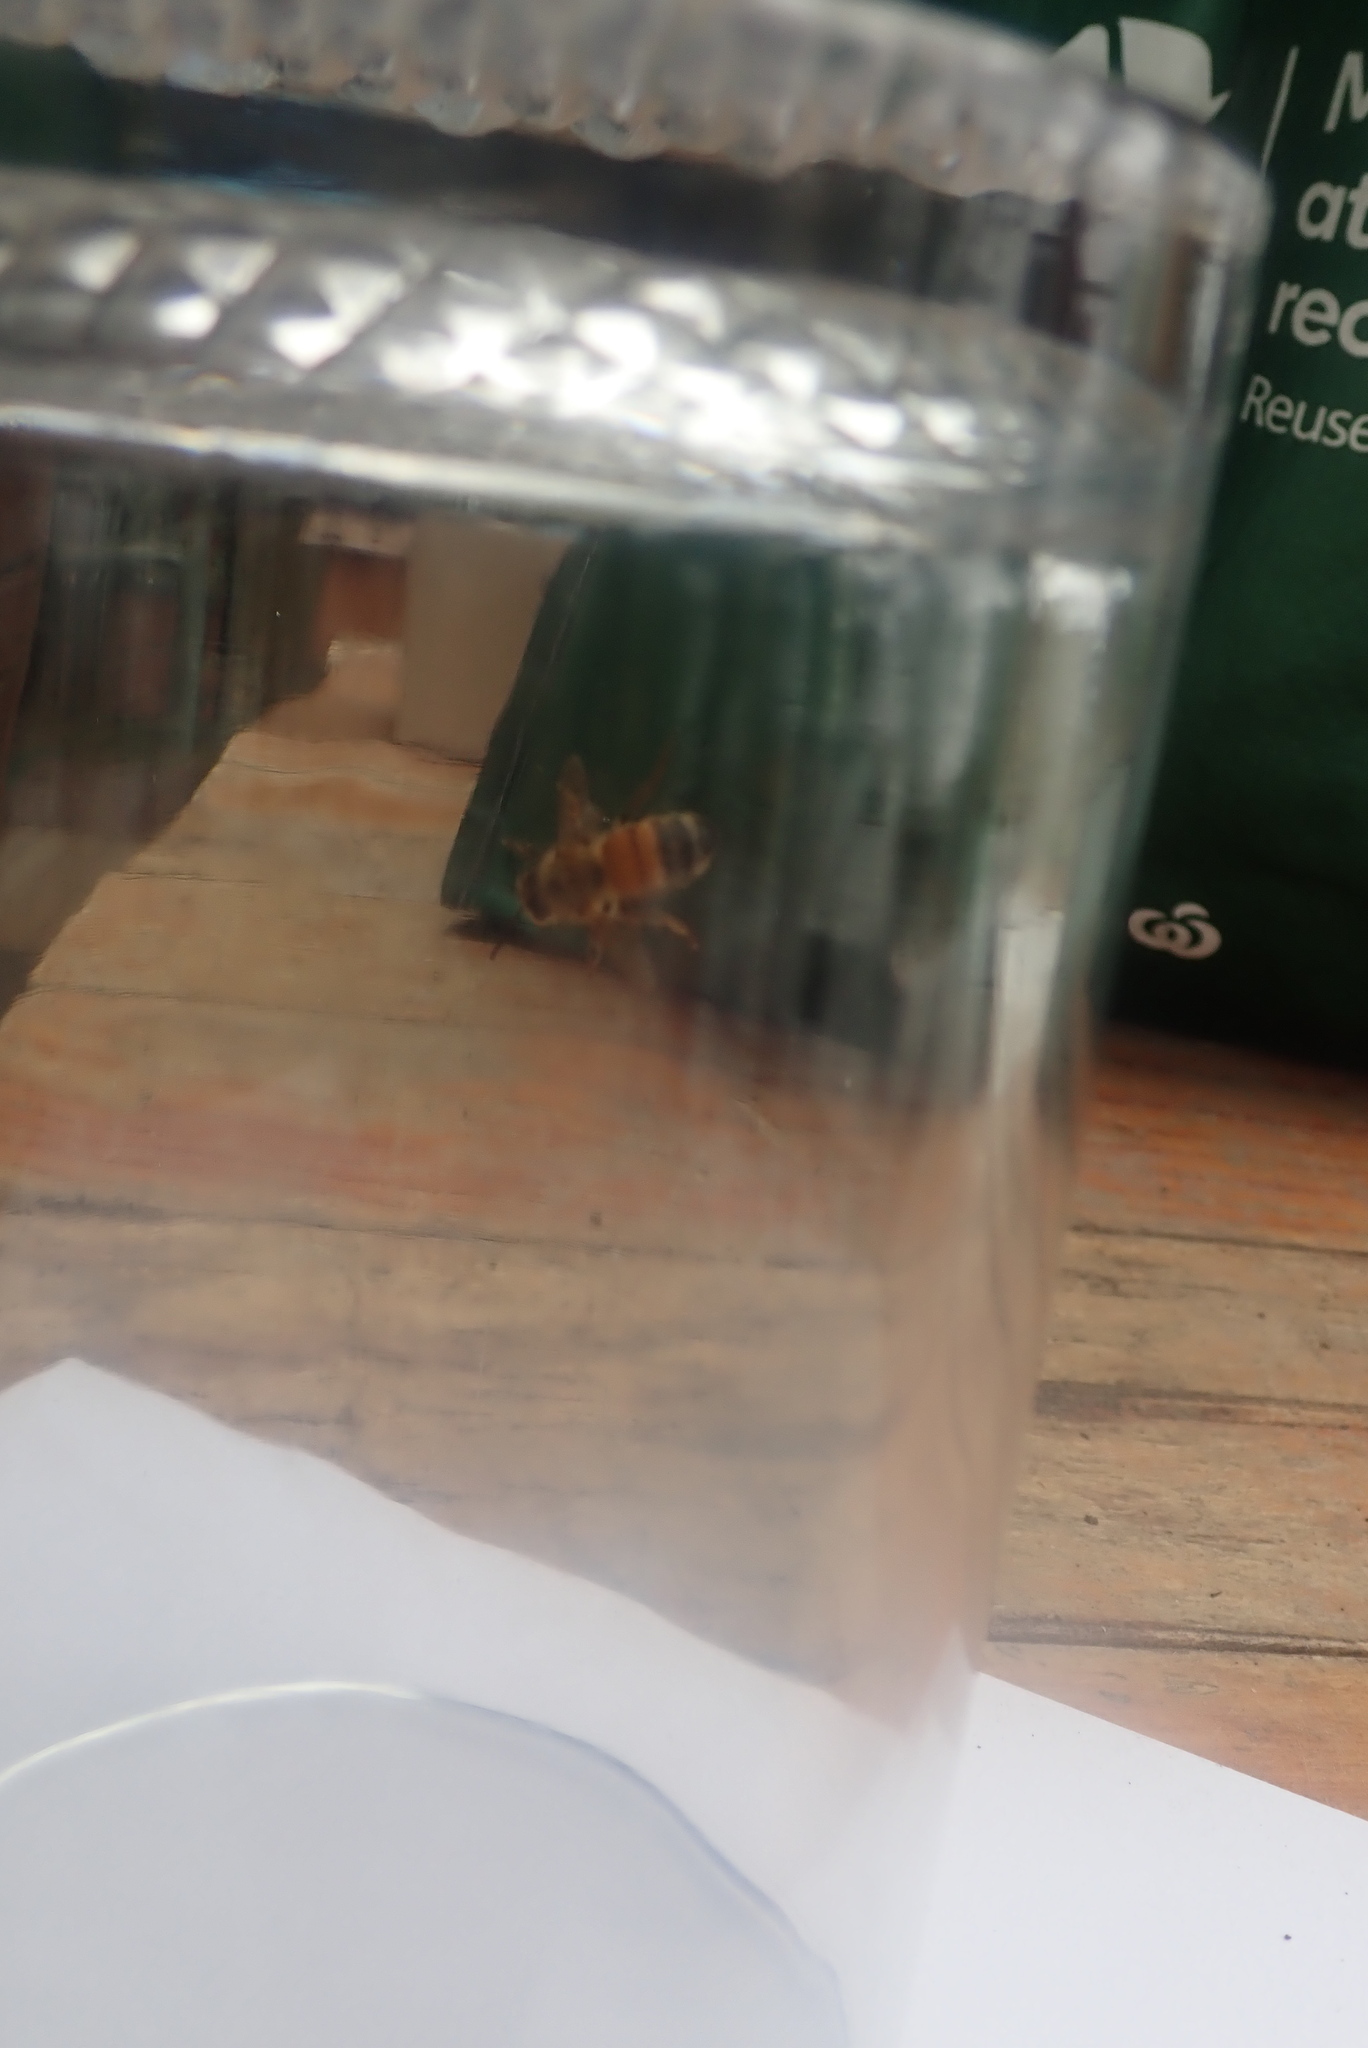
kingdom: Animalia
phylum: Arthropoda
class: Insecta
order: Hymenoptera
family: Apidae
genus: Apis
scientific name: Apis mellifera
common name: Honey bee
